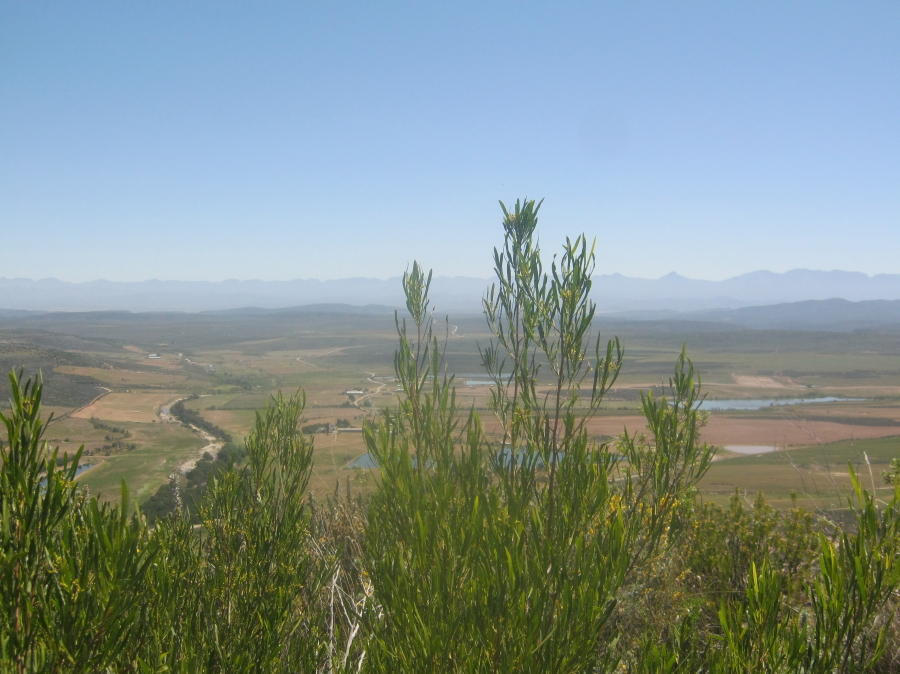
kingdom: Plantae
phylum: Tracheophyta
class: Magnoliopsida
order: Sapindales
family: Sapindaceae
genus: Dodonaea
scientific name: Dodonaea viscosa
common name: Hopbush
